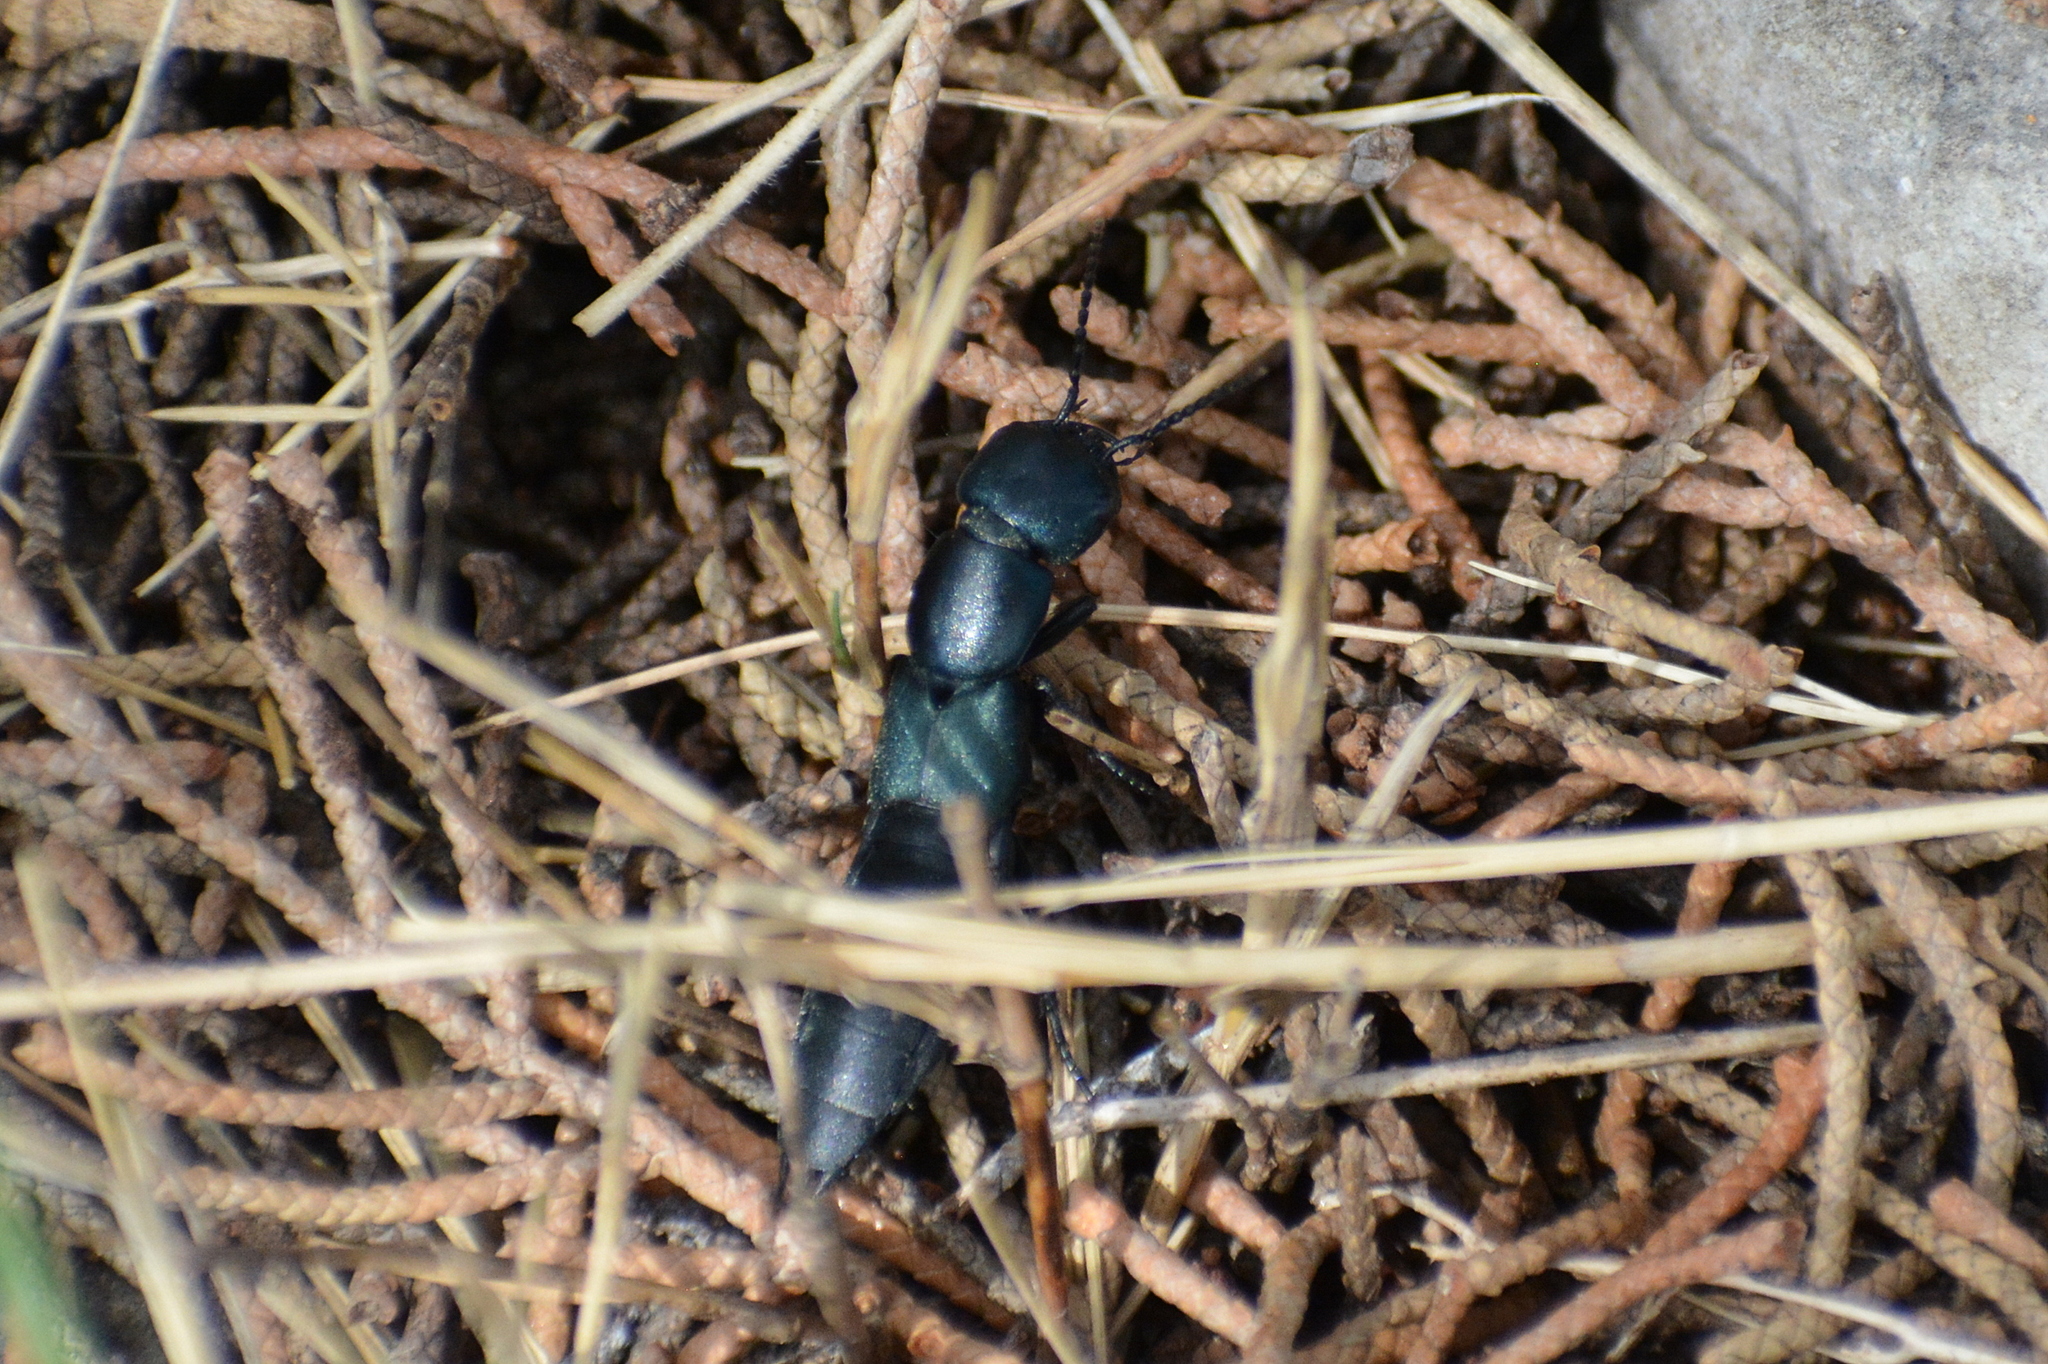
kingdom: Animalia
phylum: Arthropoda
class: Insecta
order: Coleoptera
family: Staphylinidae
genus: Ocypus
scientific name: Ocypus ophthalmicus
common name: Blue rove-beetle
